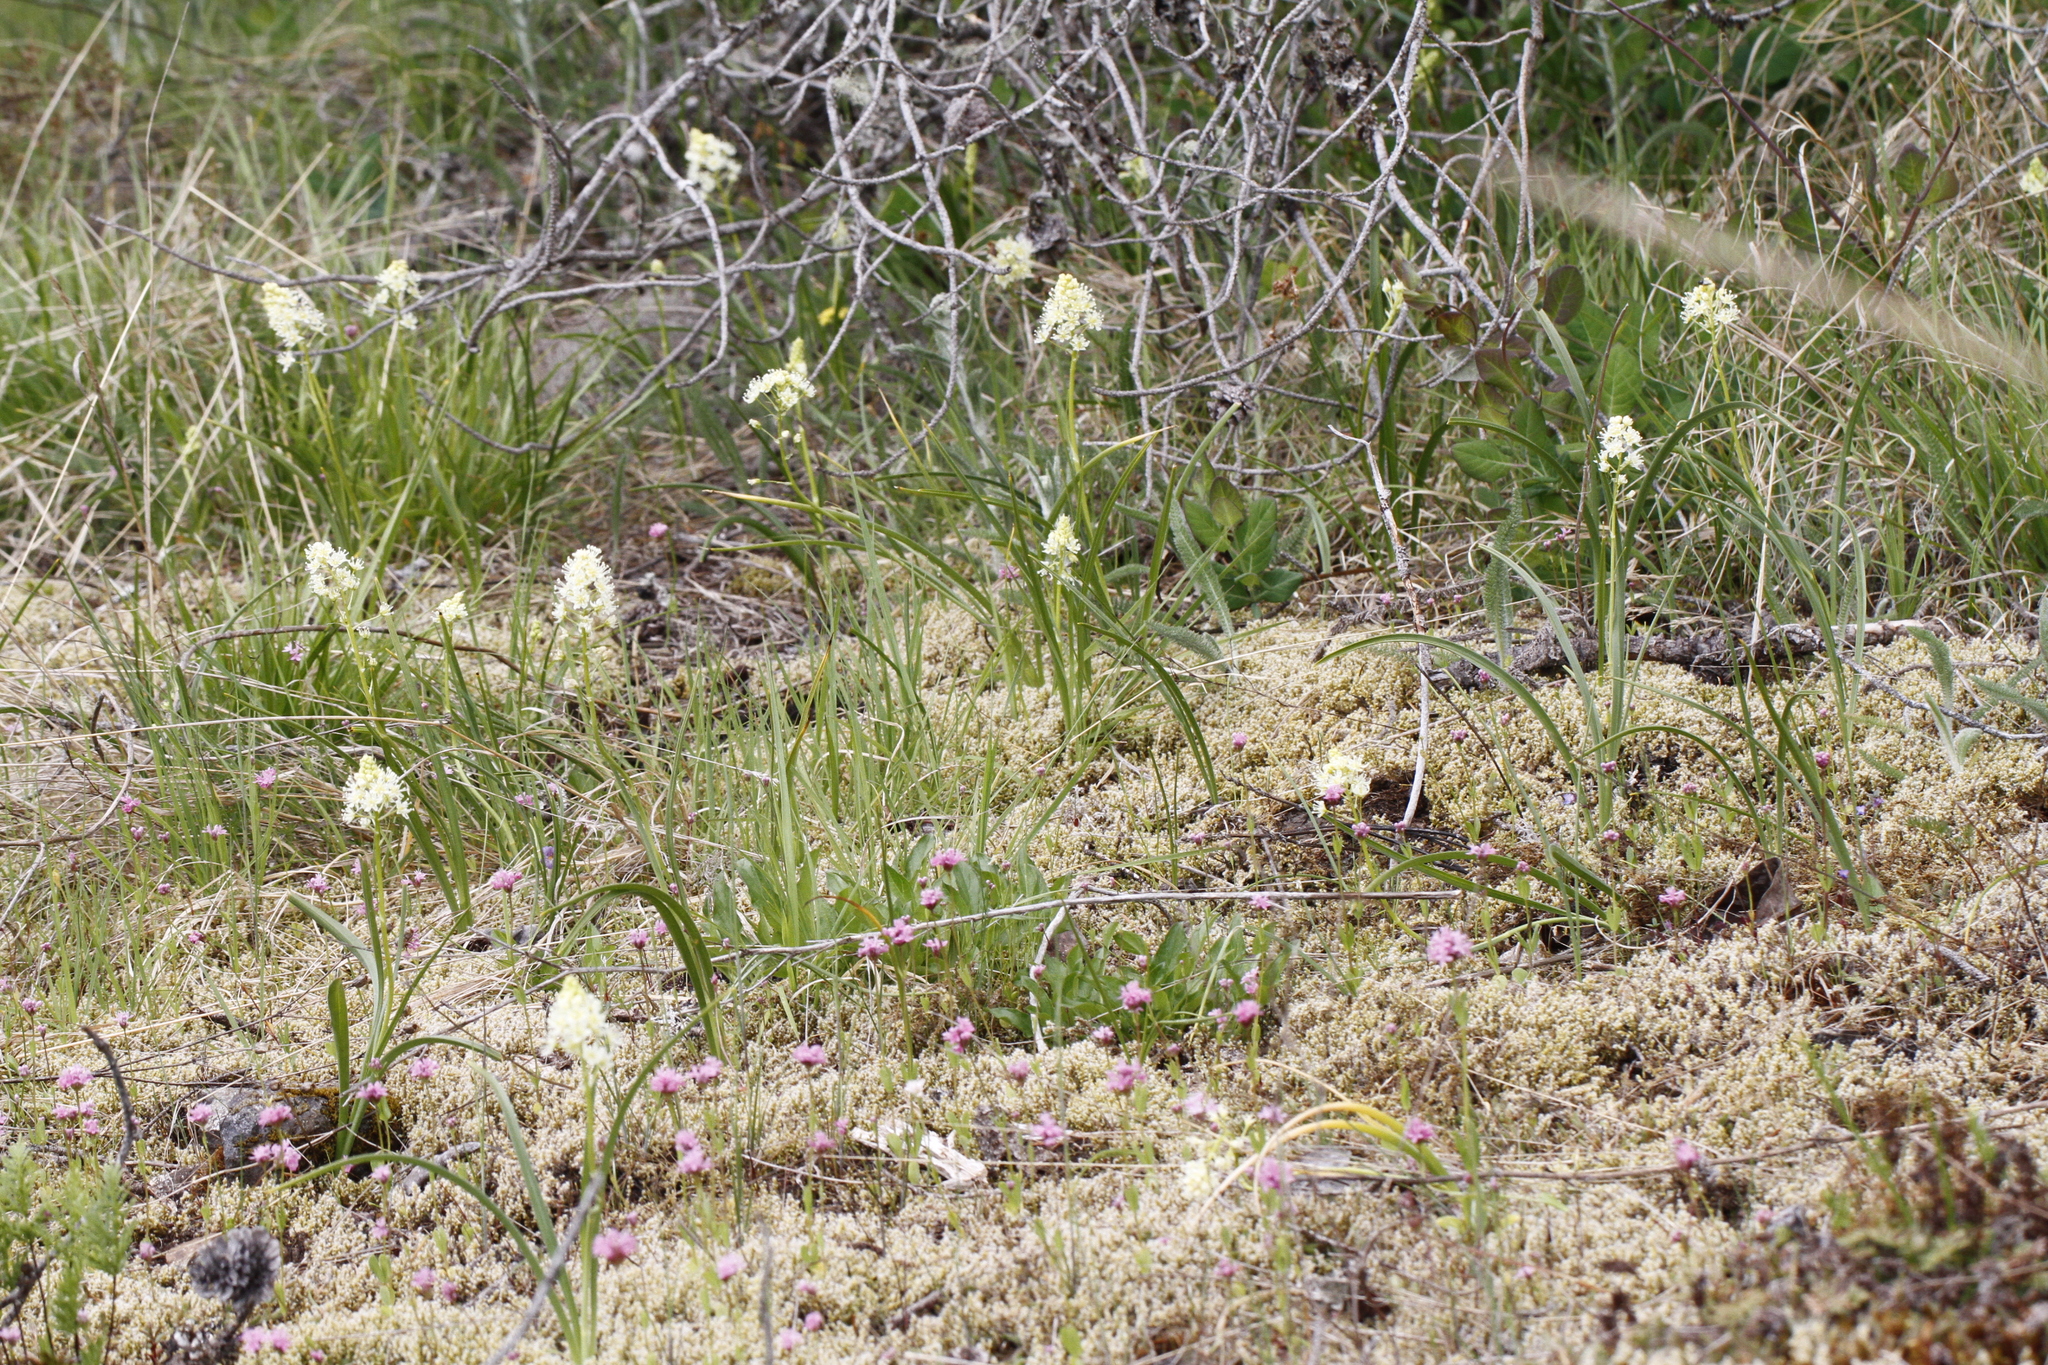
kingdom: Plantae
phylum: Tracheophyta
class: Liliopsida
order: Liliales
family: Melanthiaceae
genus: Toxicoscordion
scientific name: Toxicoscordion venenosum
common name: Meadow death camas
